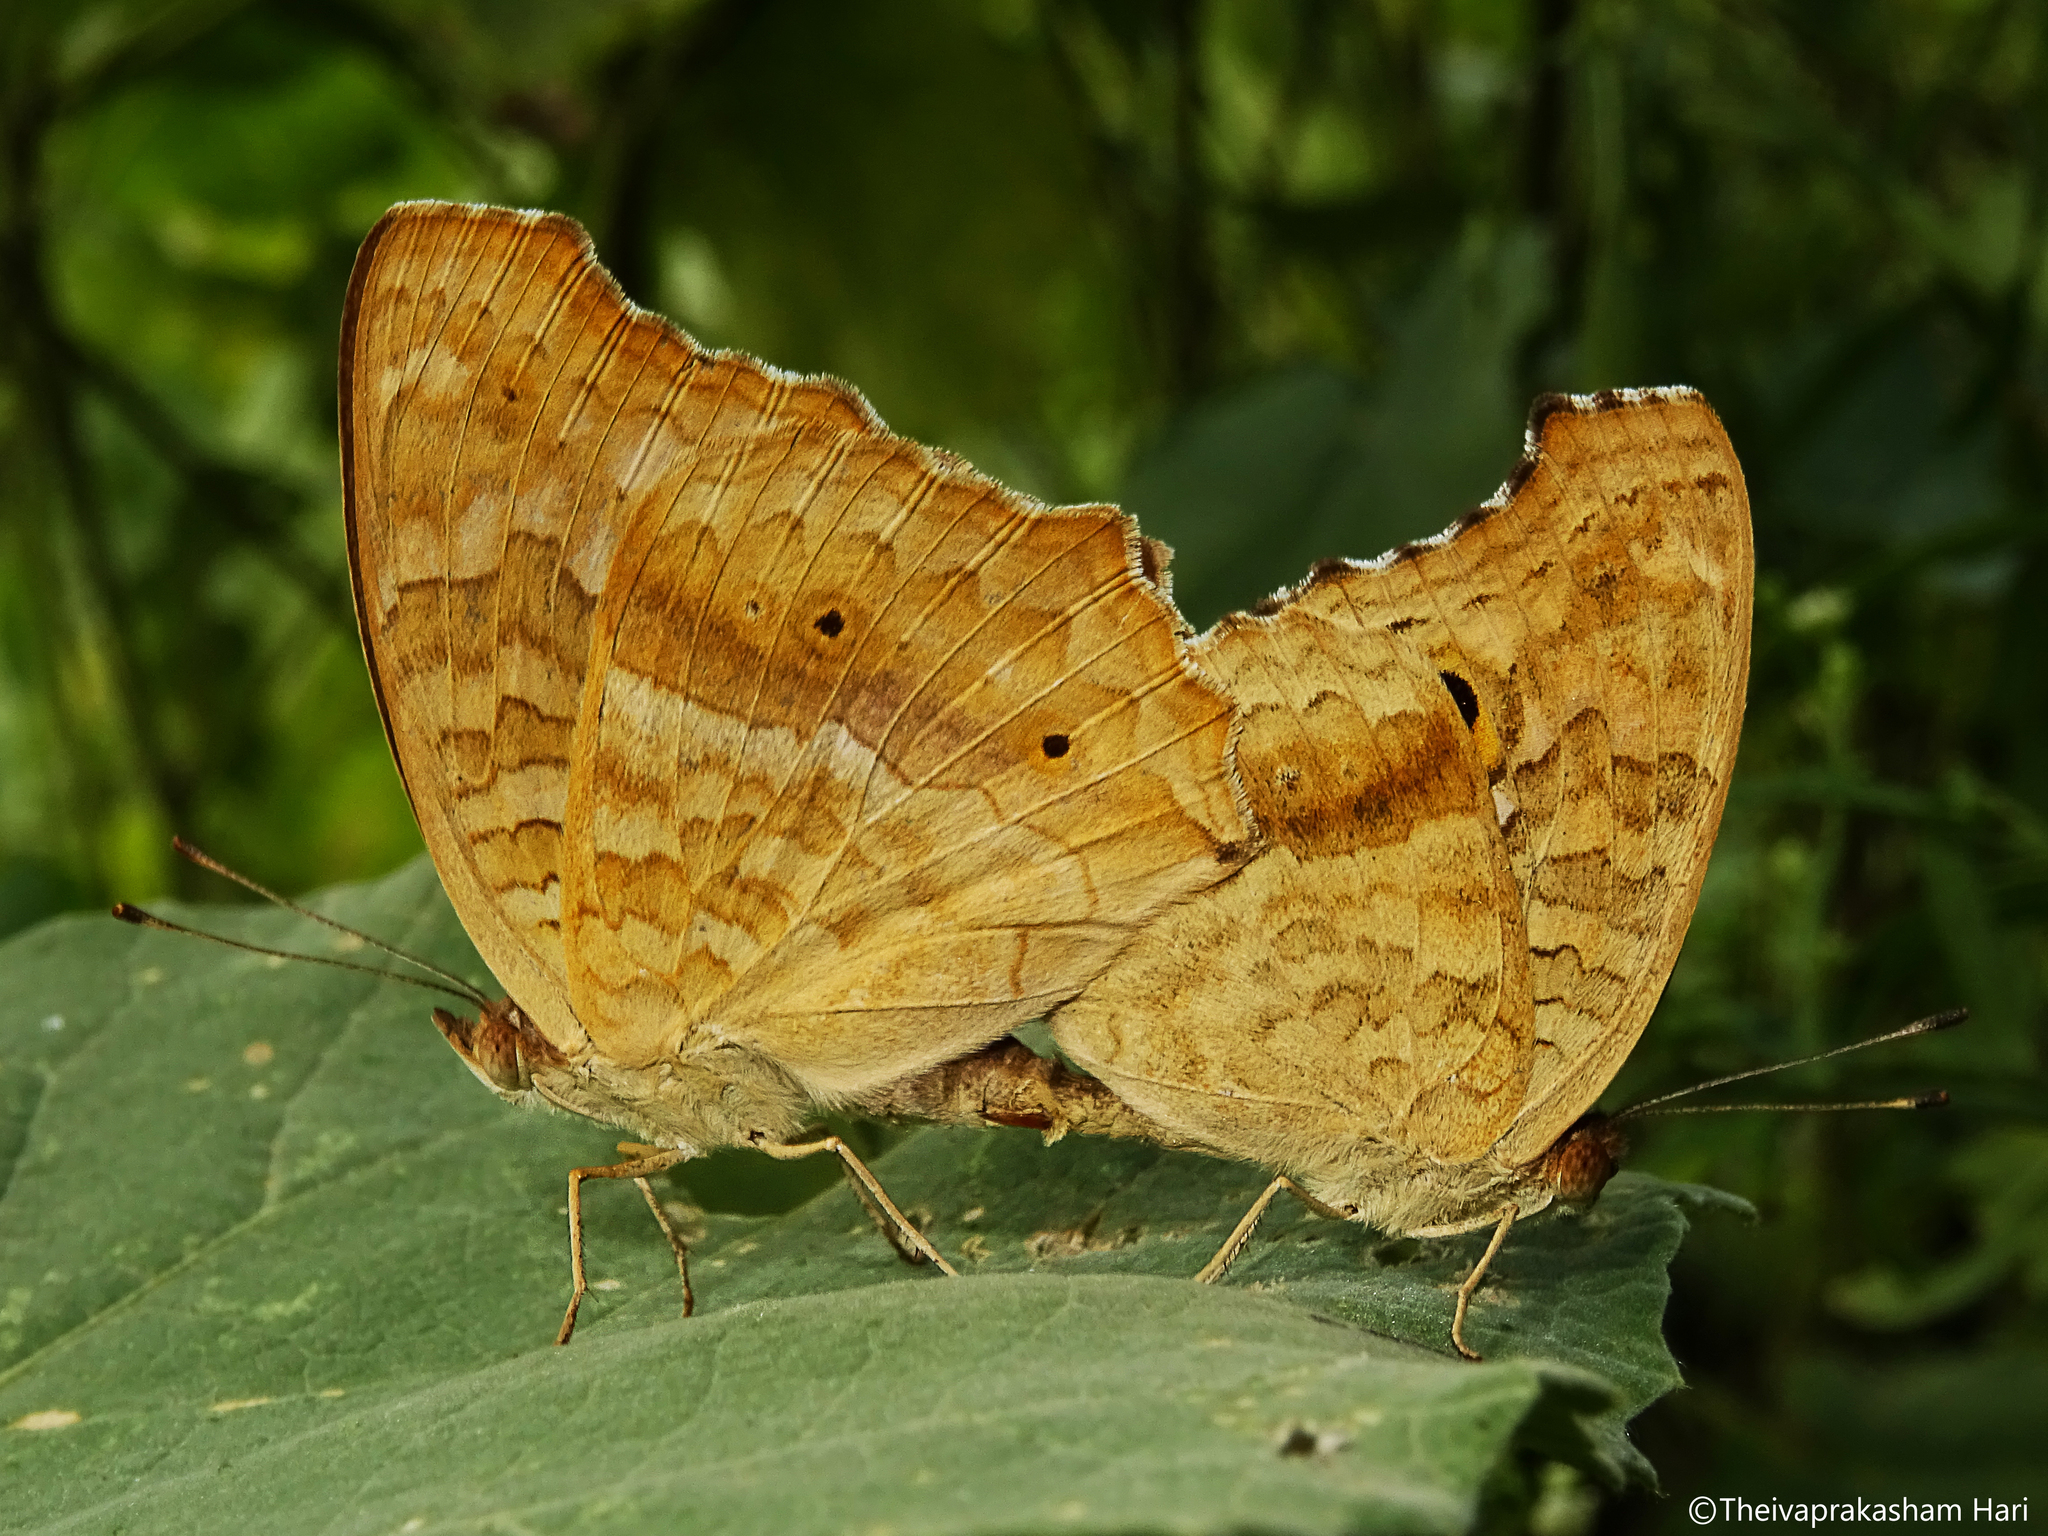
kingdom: Animalia
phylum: Arthropoda
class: Insecta
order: Lepidoptera
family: Nymphalidae
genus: Junonia
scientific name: Junonia lemonias
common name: Lemon pansy
